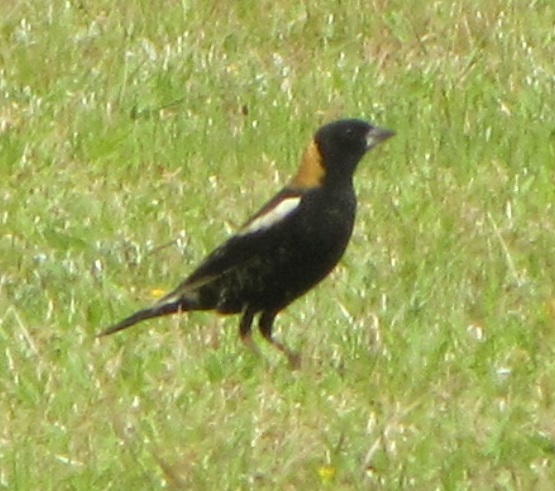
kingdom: Animalia
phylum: Chordata
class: Aves
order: Passeriformes
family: Icteridae
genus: Dolichonyx
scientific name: Dolichonyx oryzivorus
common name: Bobolink
